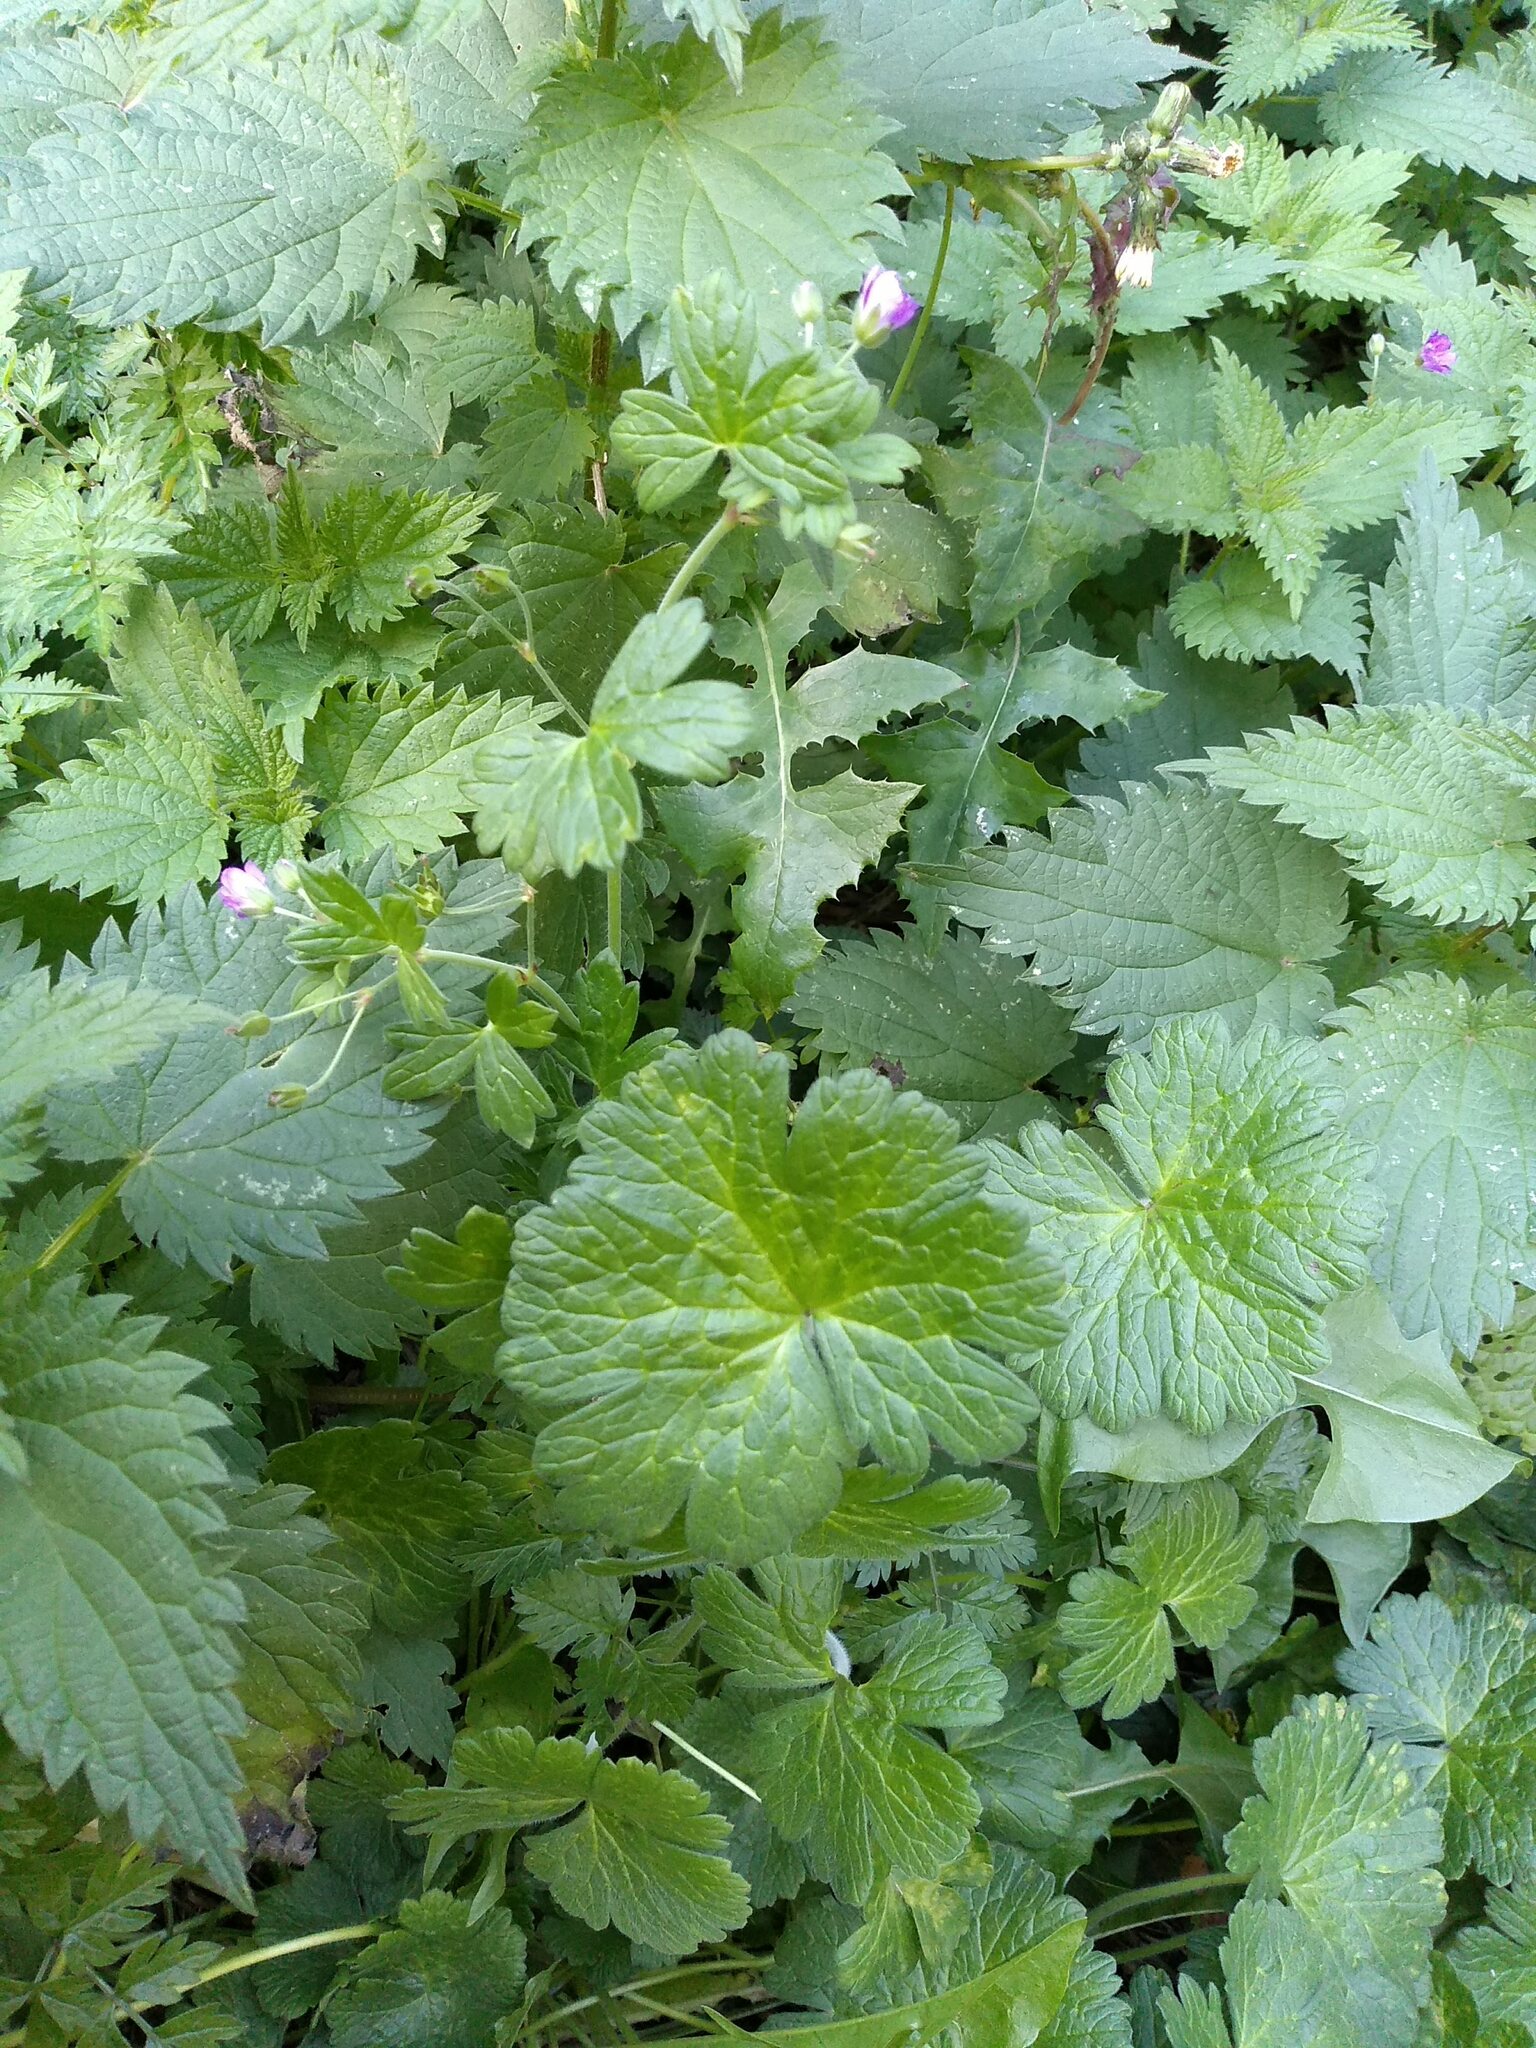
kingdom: Plantae
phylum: Tracheophyta
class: Magnoliopsida
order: Geraniales
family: Geraniaceae
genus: Geranium
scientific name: Geranium pyrenaicum
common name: Hedgerow crane's-bill
